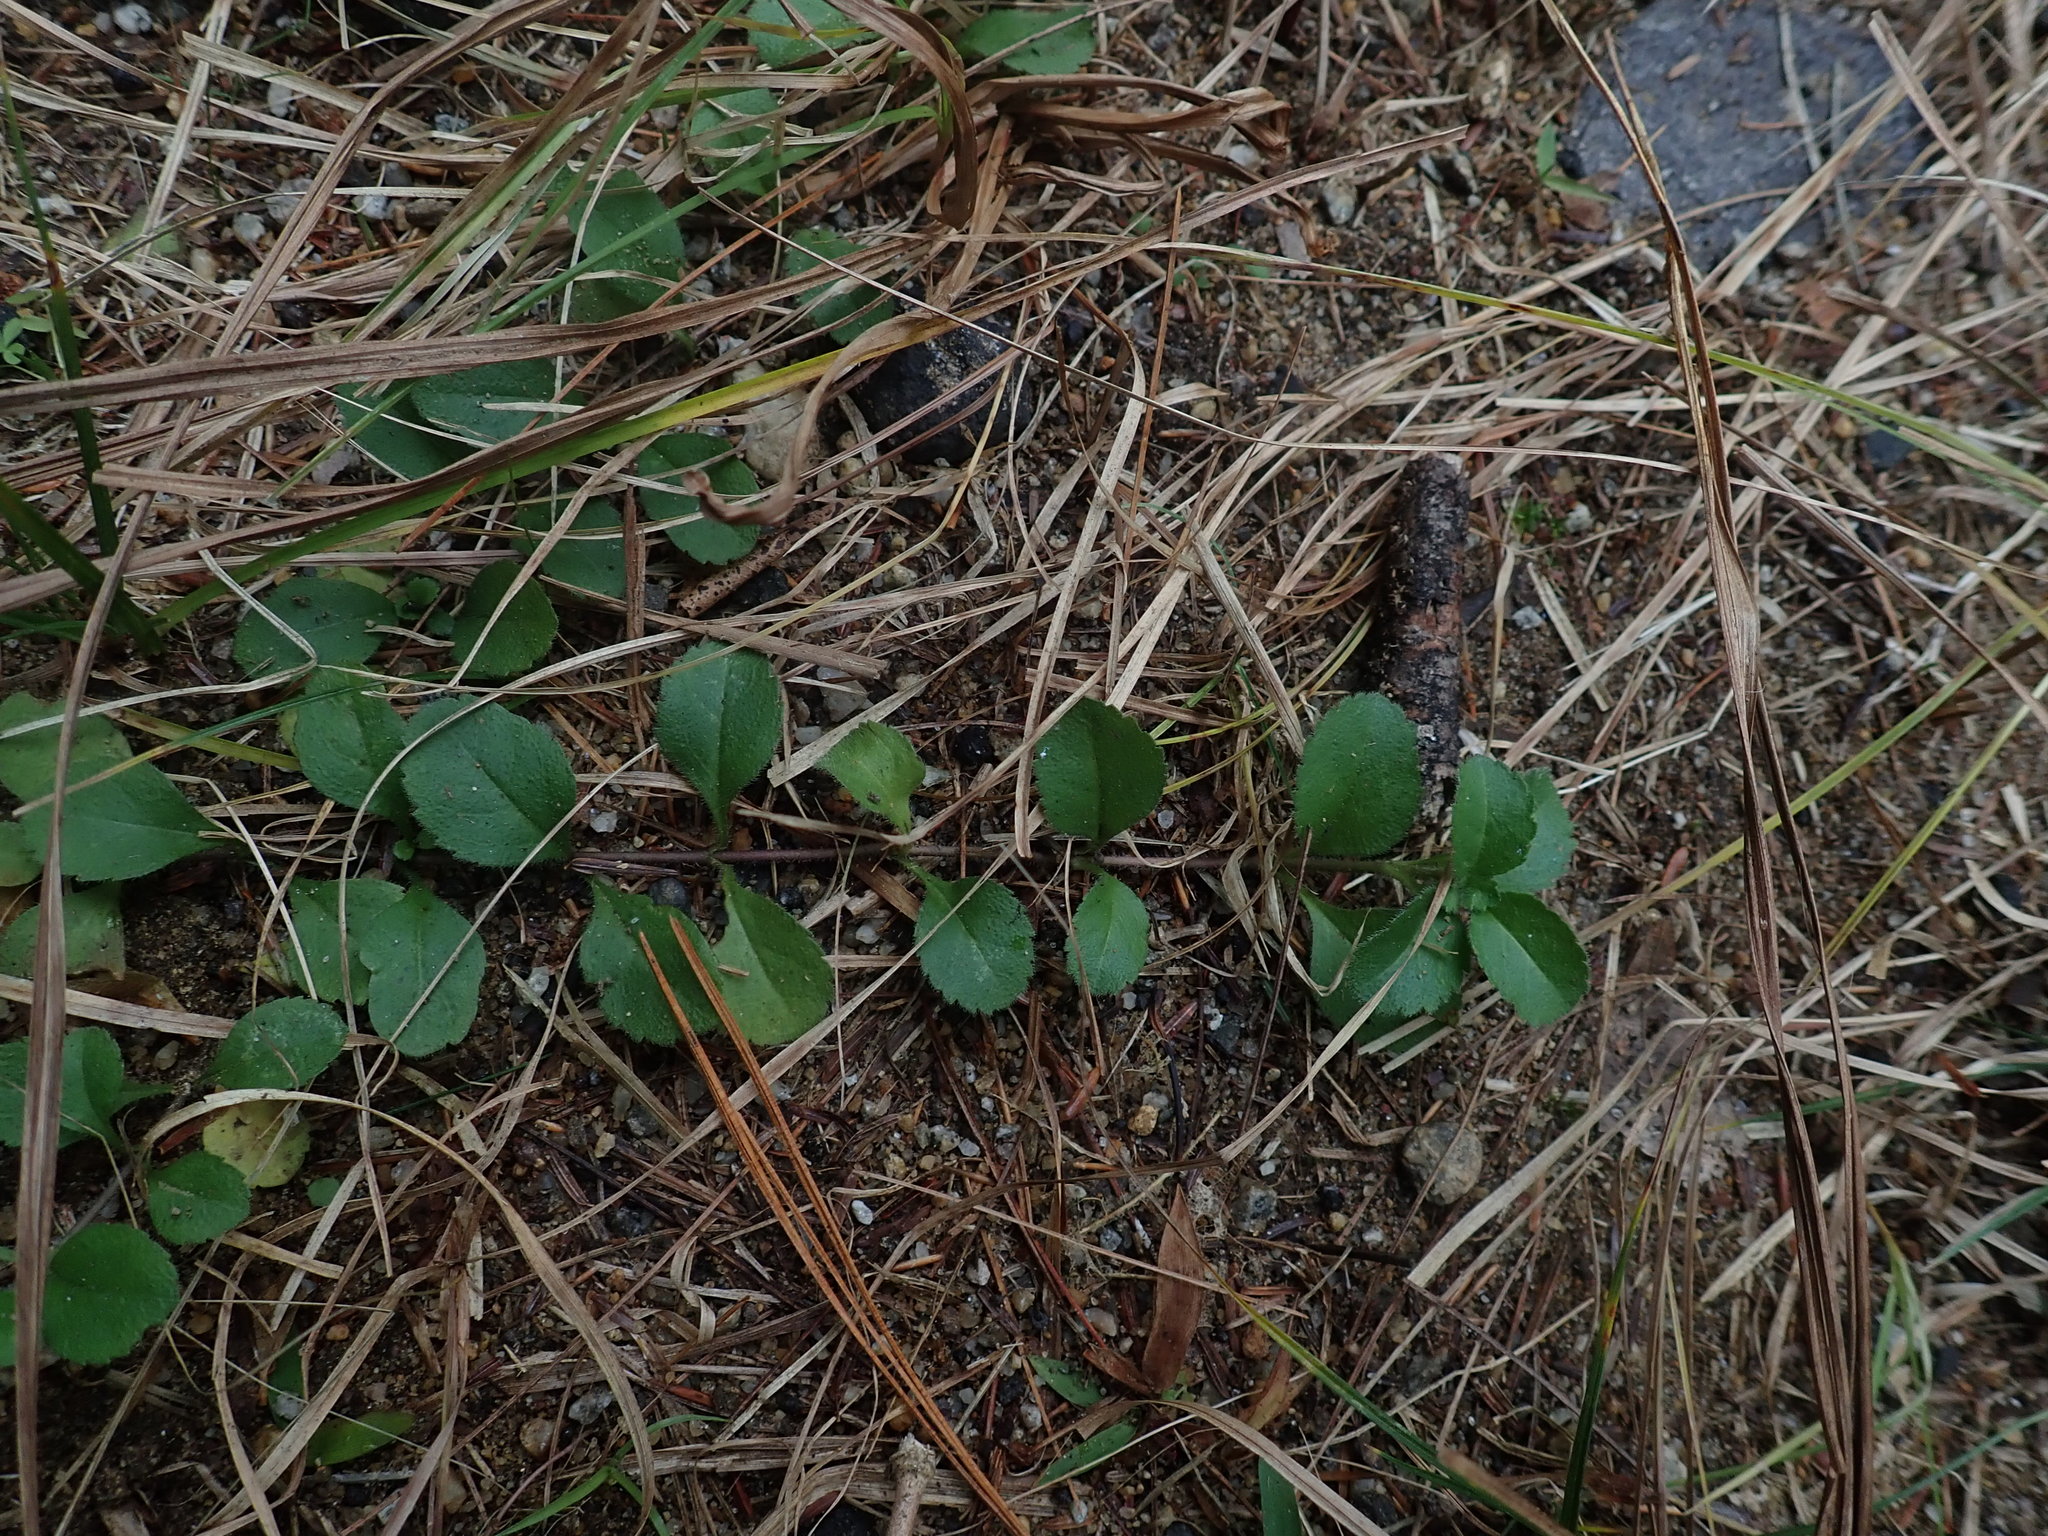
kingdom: Plantae
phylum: Tracheophyta
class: Magnoliopsida
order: Lamiales
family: Plantaginaceae
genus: Veronica
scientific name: Veronica officinalis
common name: Common speedwell
